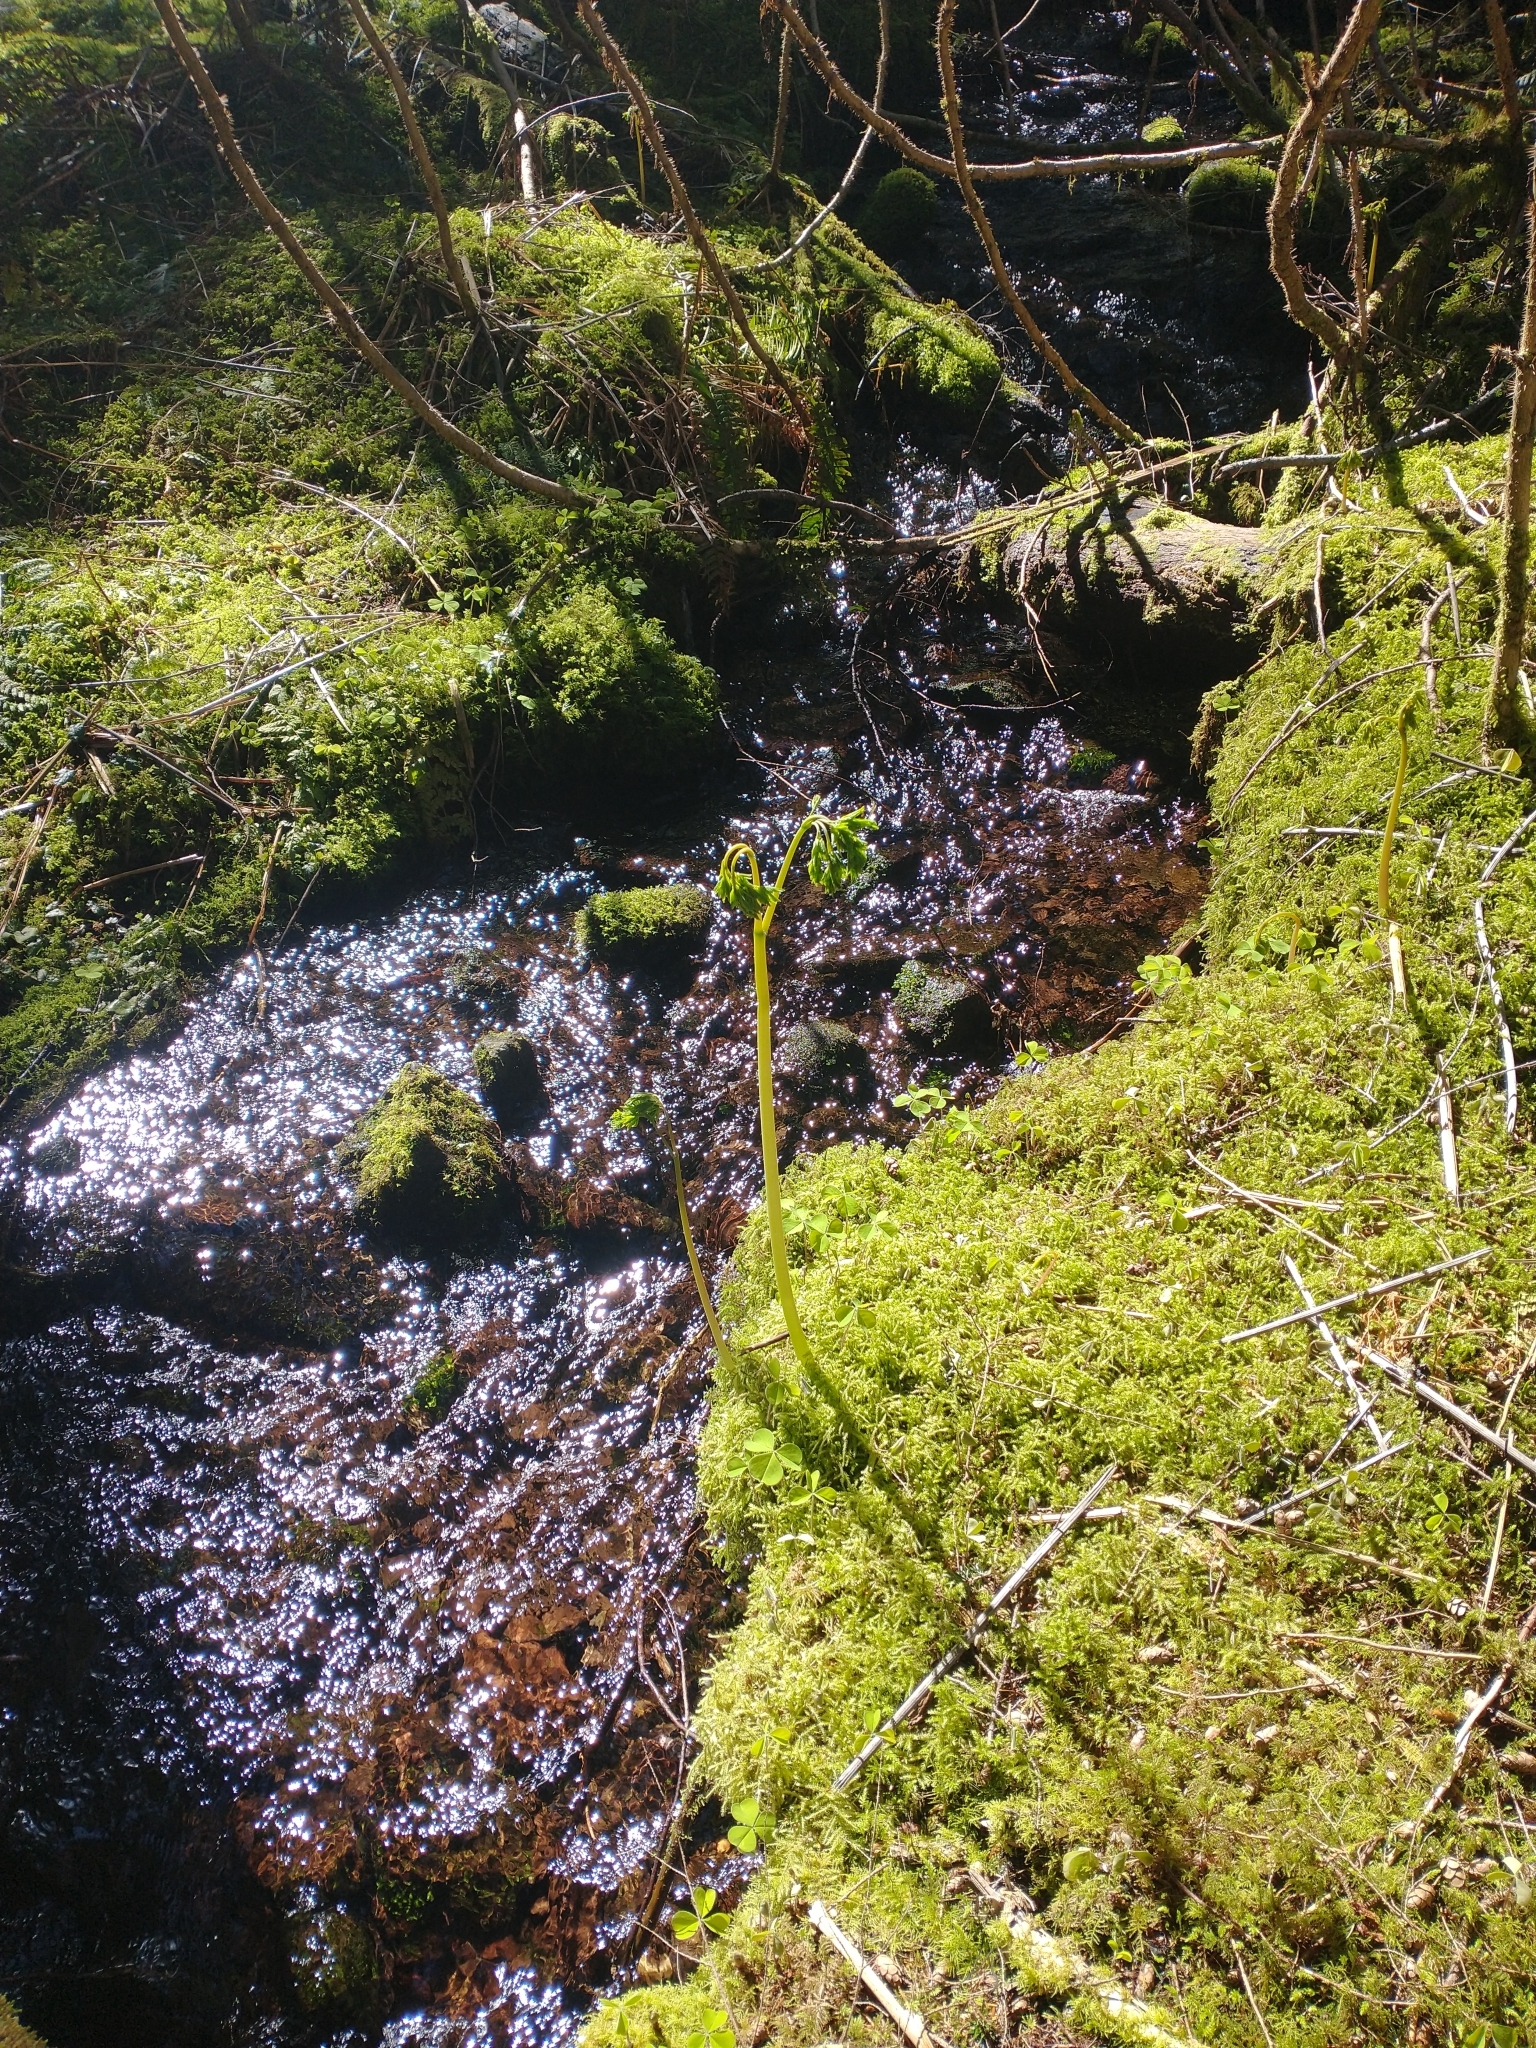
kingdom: Plantae
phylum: Tracheophyta
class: Magnoliopsida
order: Ranunculales
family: Papaveraceae
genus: Corydalis
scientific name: Corydalis scouleri
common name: Scouler's corydalis
